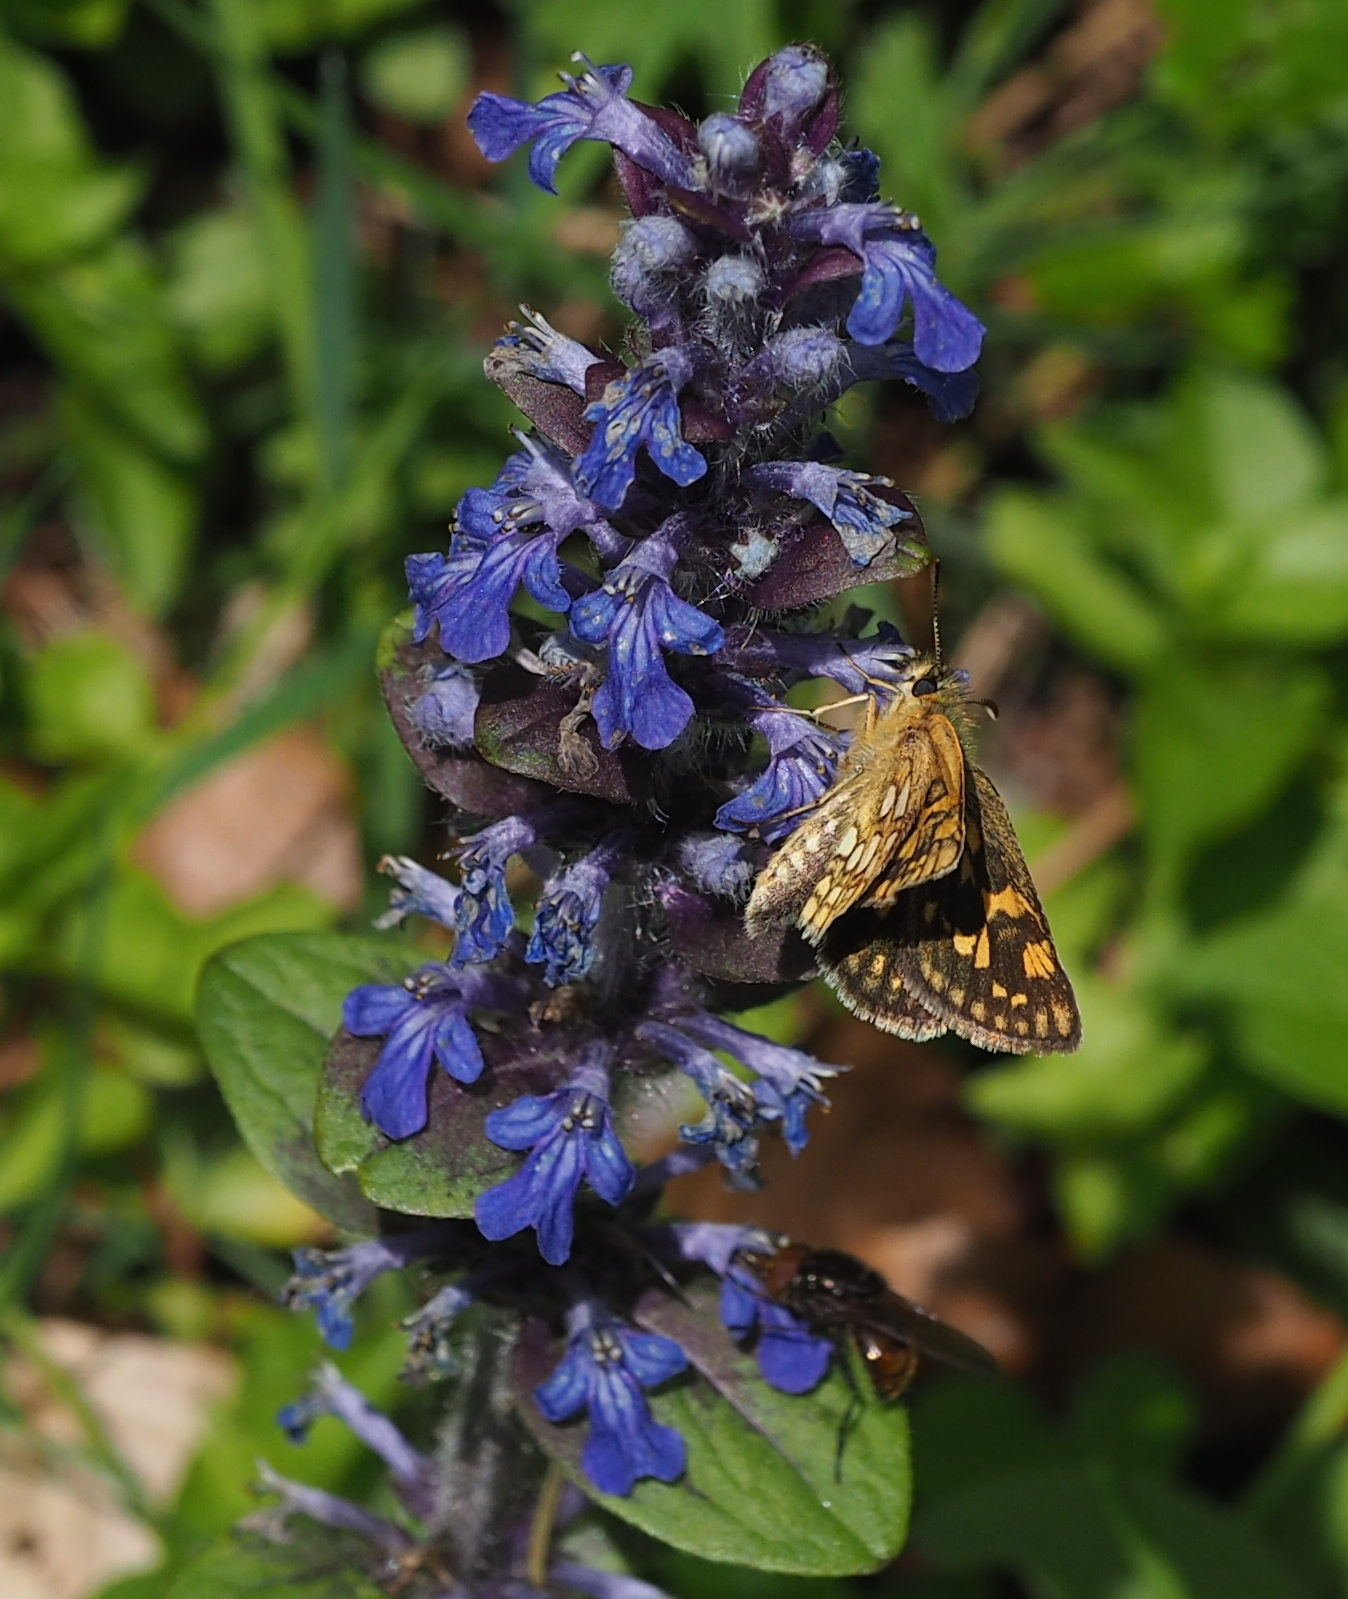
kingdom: Plantae
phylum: Tracheophyta
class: Magnoliopsida
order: Lamiales
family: Lamiaceae
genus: Ajuga
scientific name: Ajuga reptans
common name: Bugle
